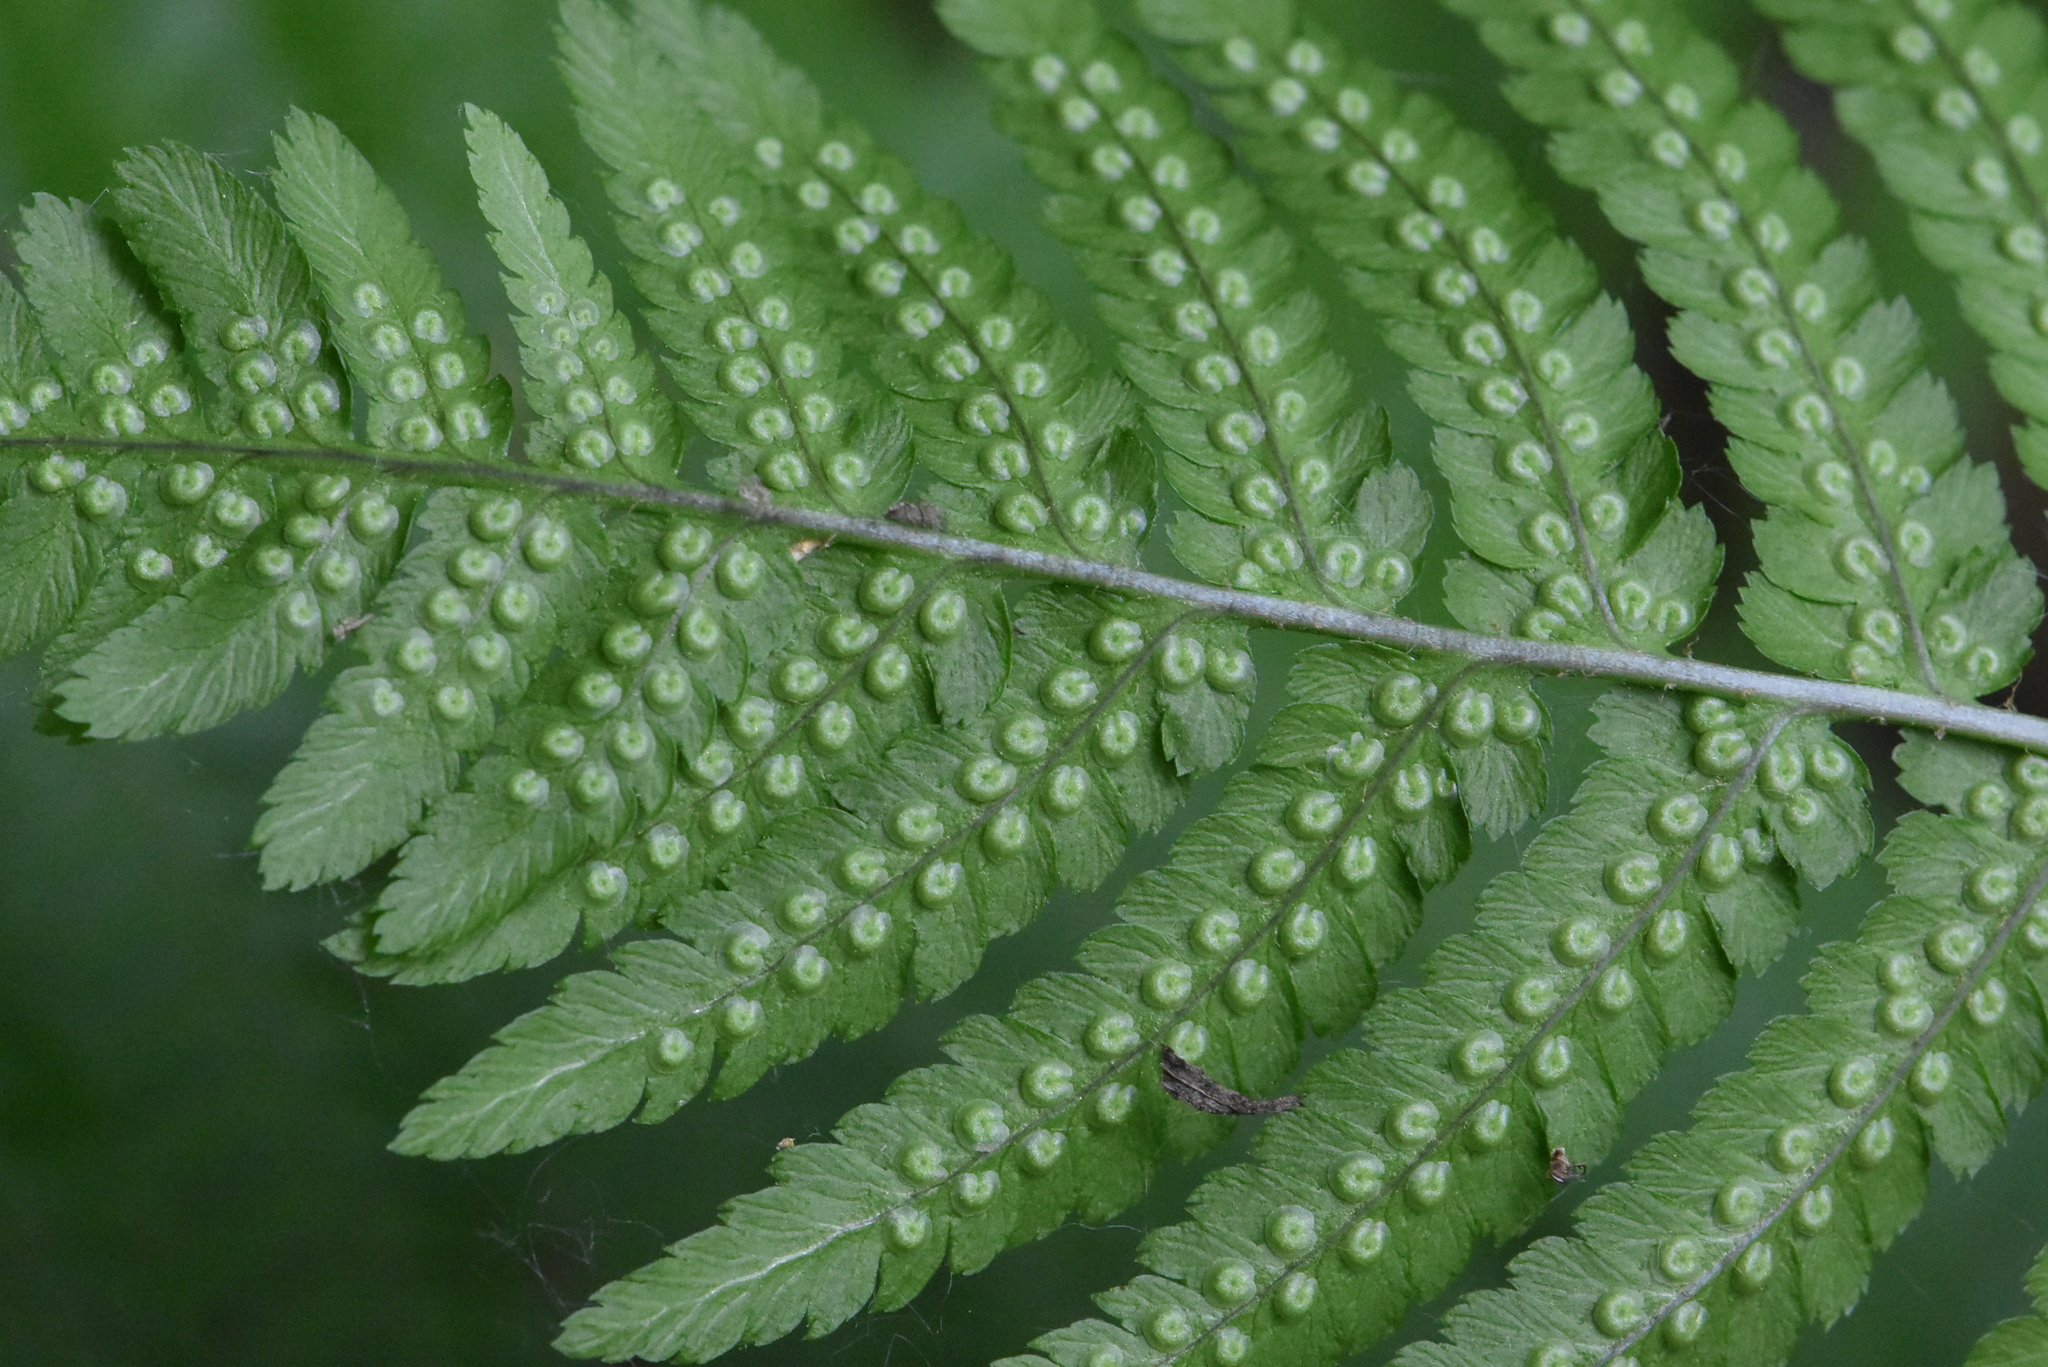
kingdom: Plantae
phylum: Tracheophyta
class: Polypodiopsida
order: Polypodiales
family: Dryopteridaceae
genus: Dryopteris
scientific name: Dryopteris filix-mas
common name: Male fern
